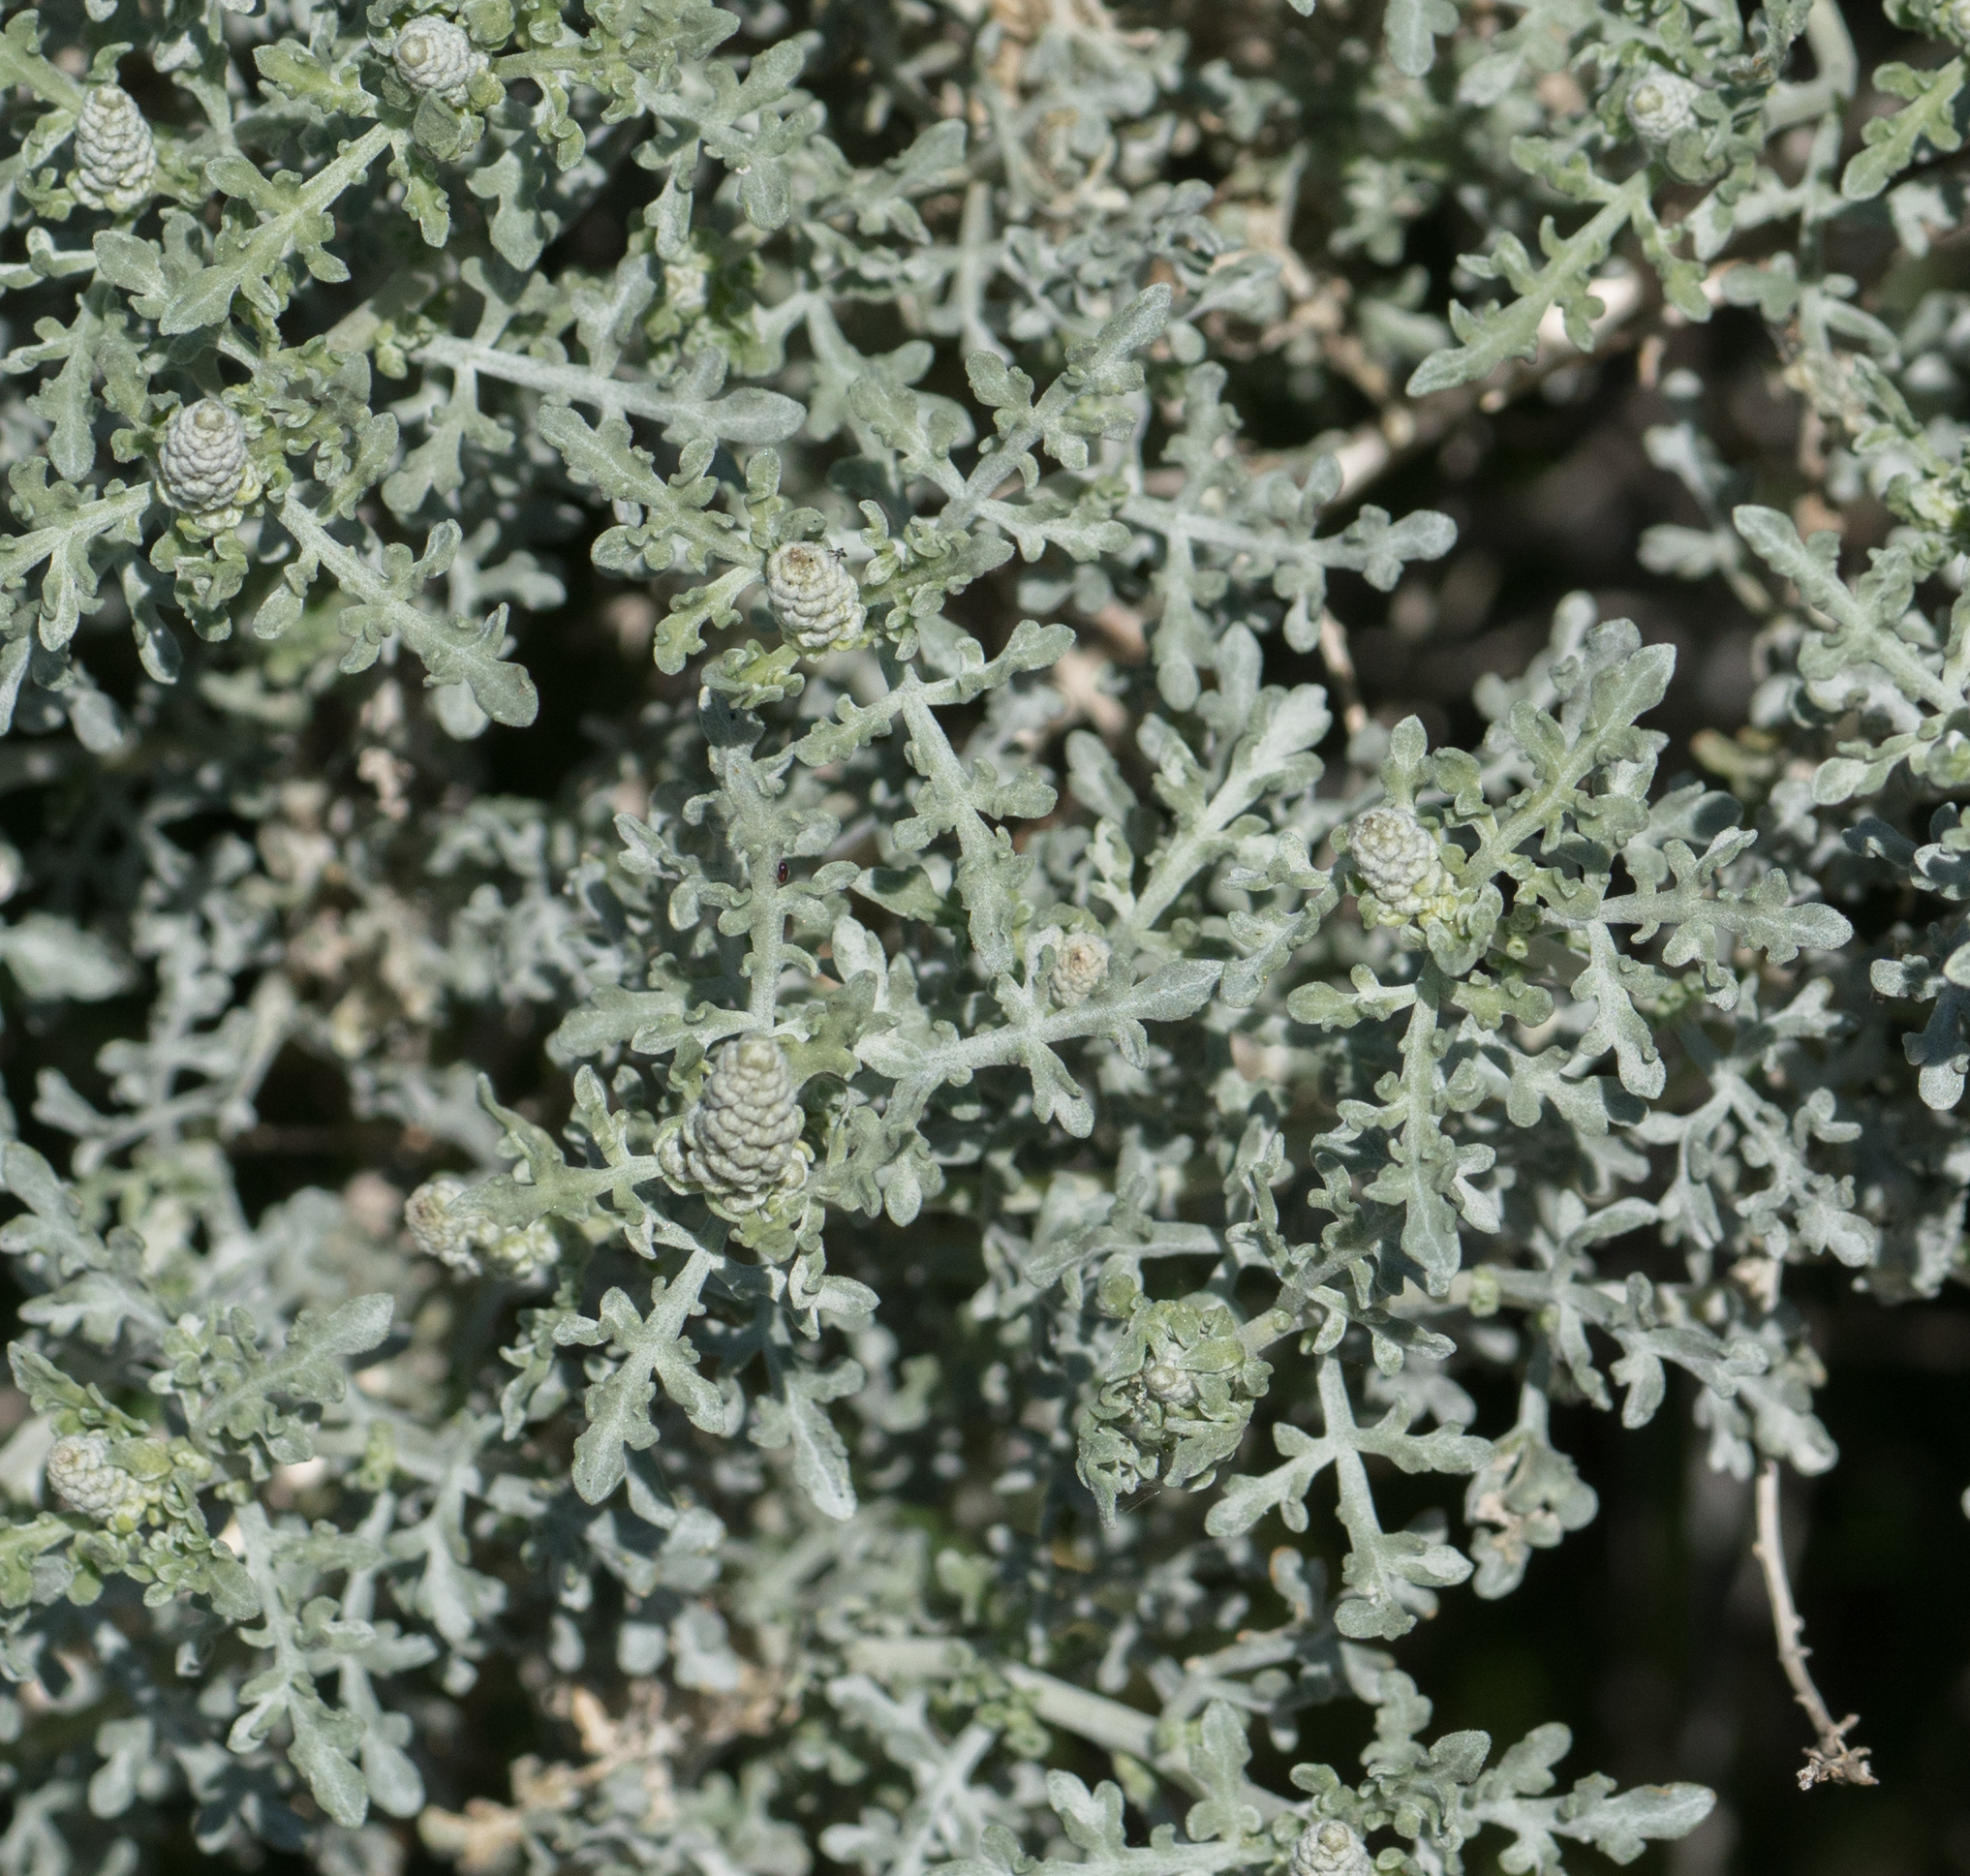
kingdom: Plantae
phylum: Tracheophyta
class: Magnoliopsida
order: Asterales
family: Asteraceae
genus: Ambrosia
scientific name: Ambrosia dumosa
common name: Bur-sage
